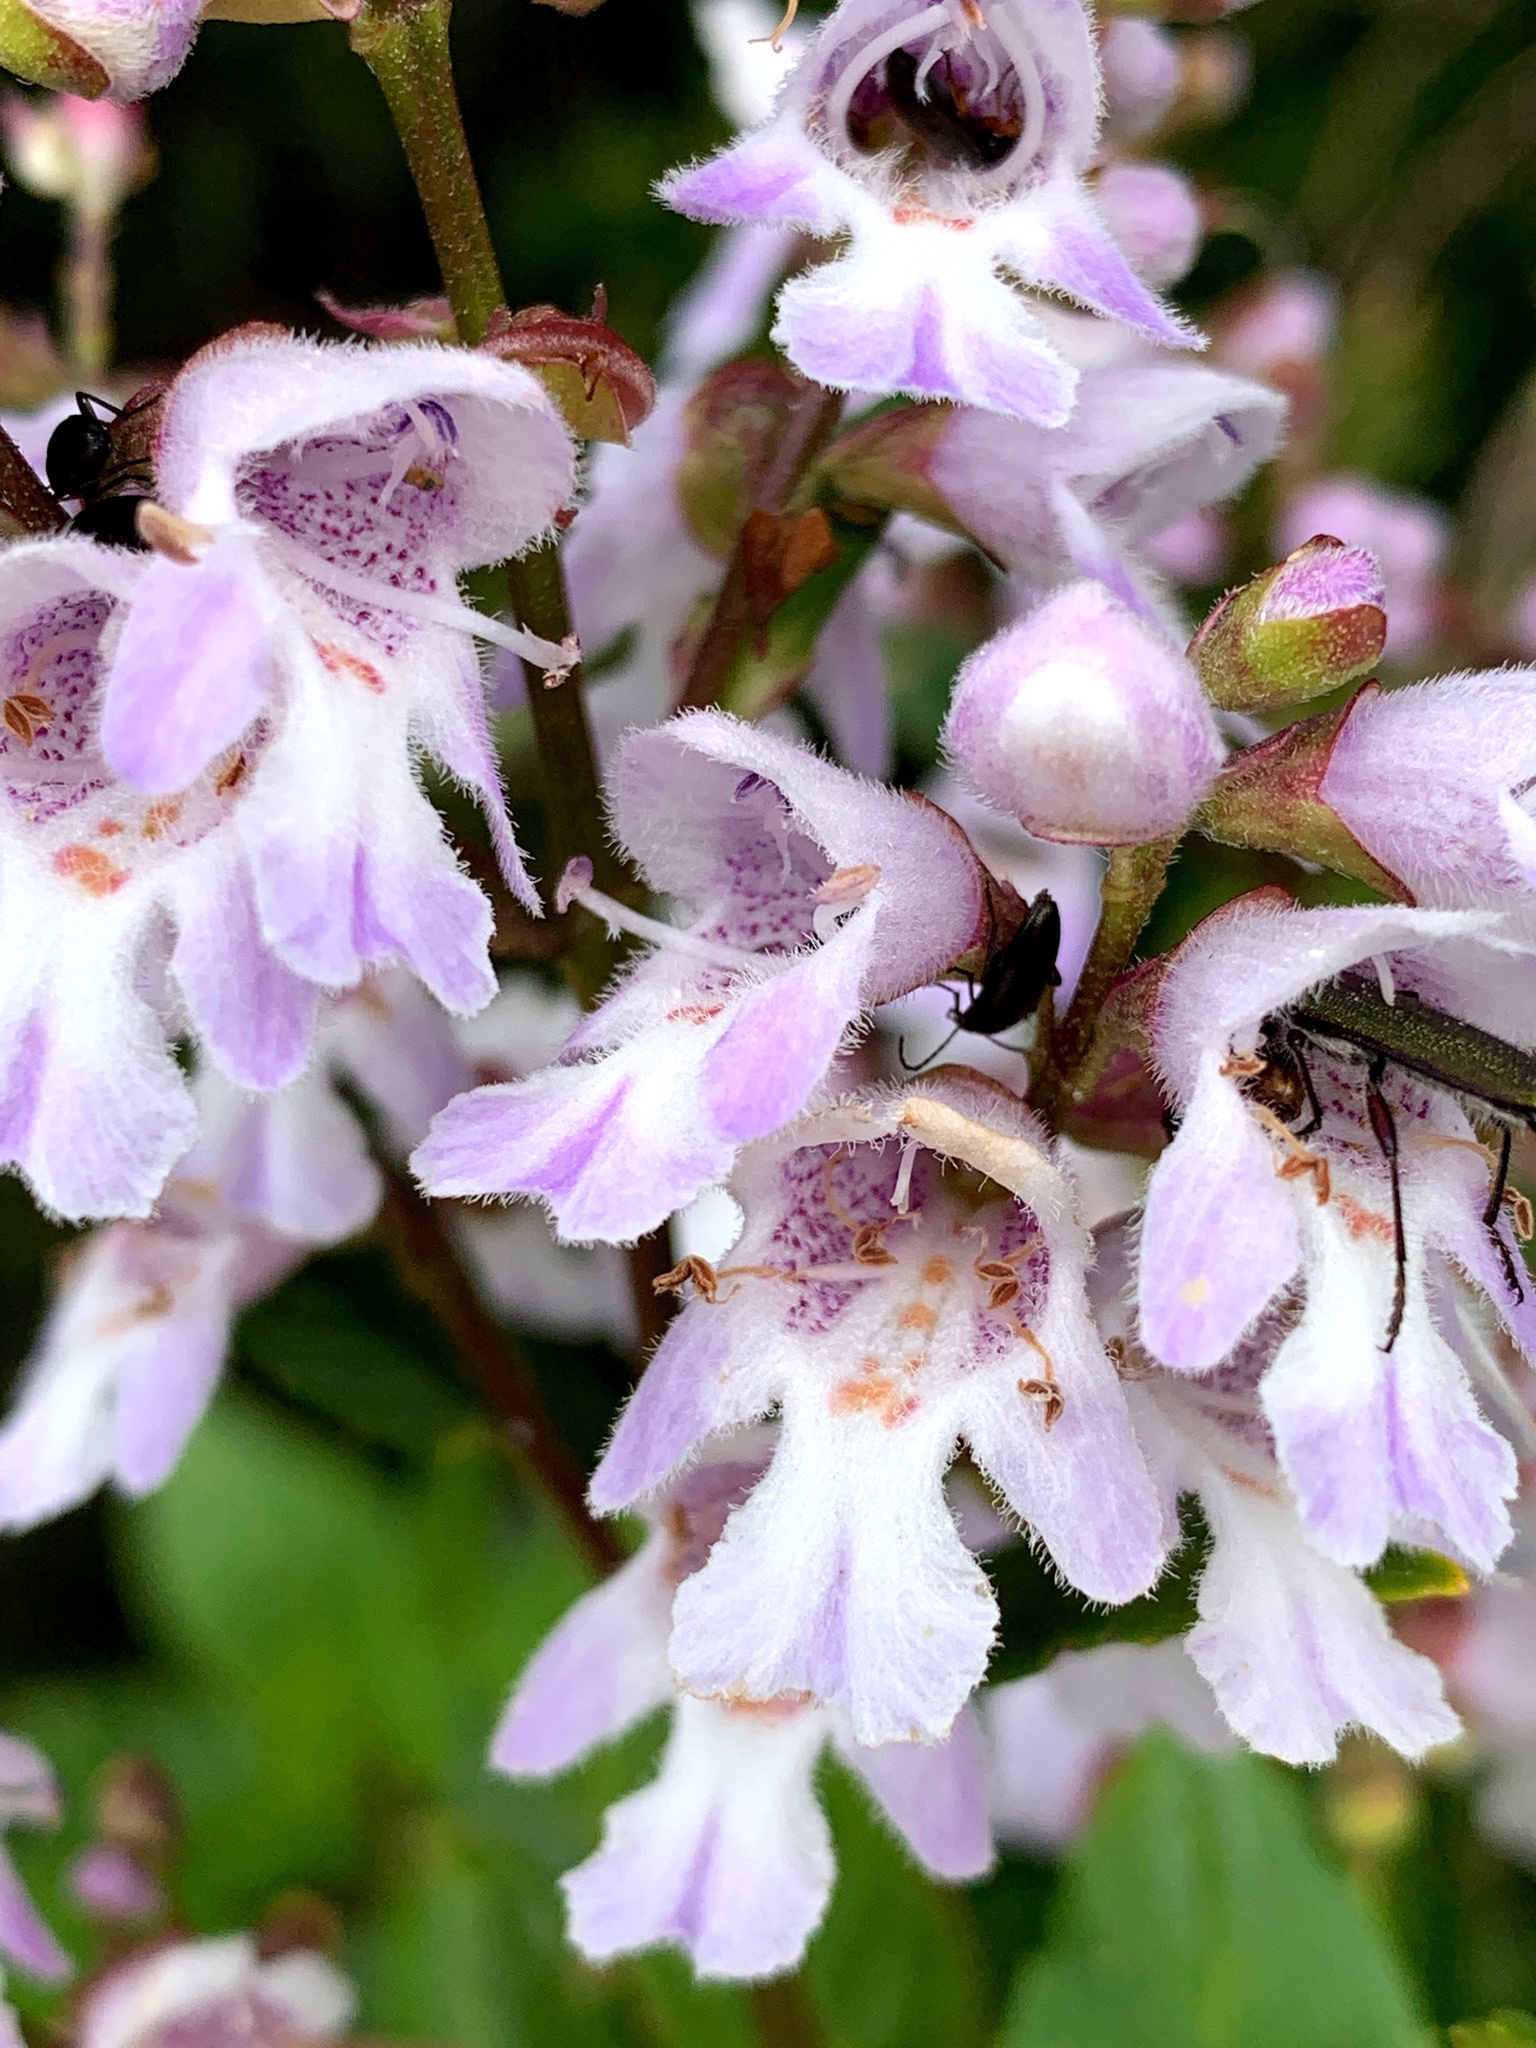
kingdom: Plantae
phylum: Tracheophyta
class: Magnoliopsida
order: Lamiales
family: Lamiaceae
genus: Prostanthera
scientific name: Prostanthera
